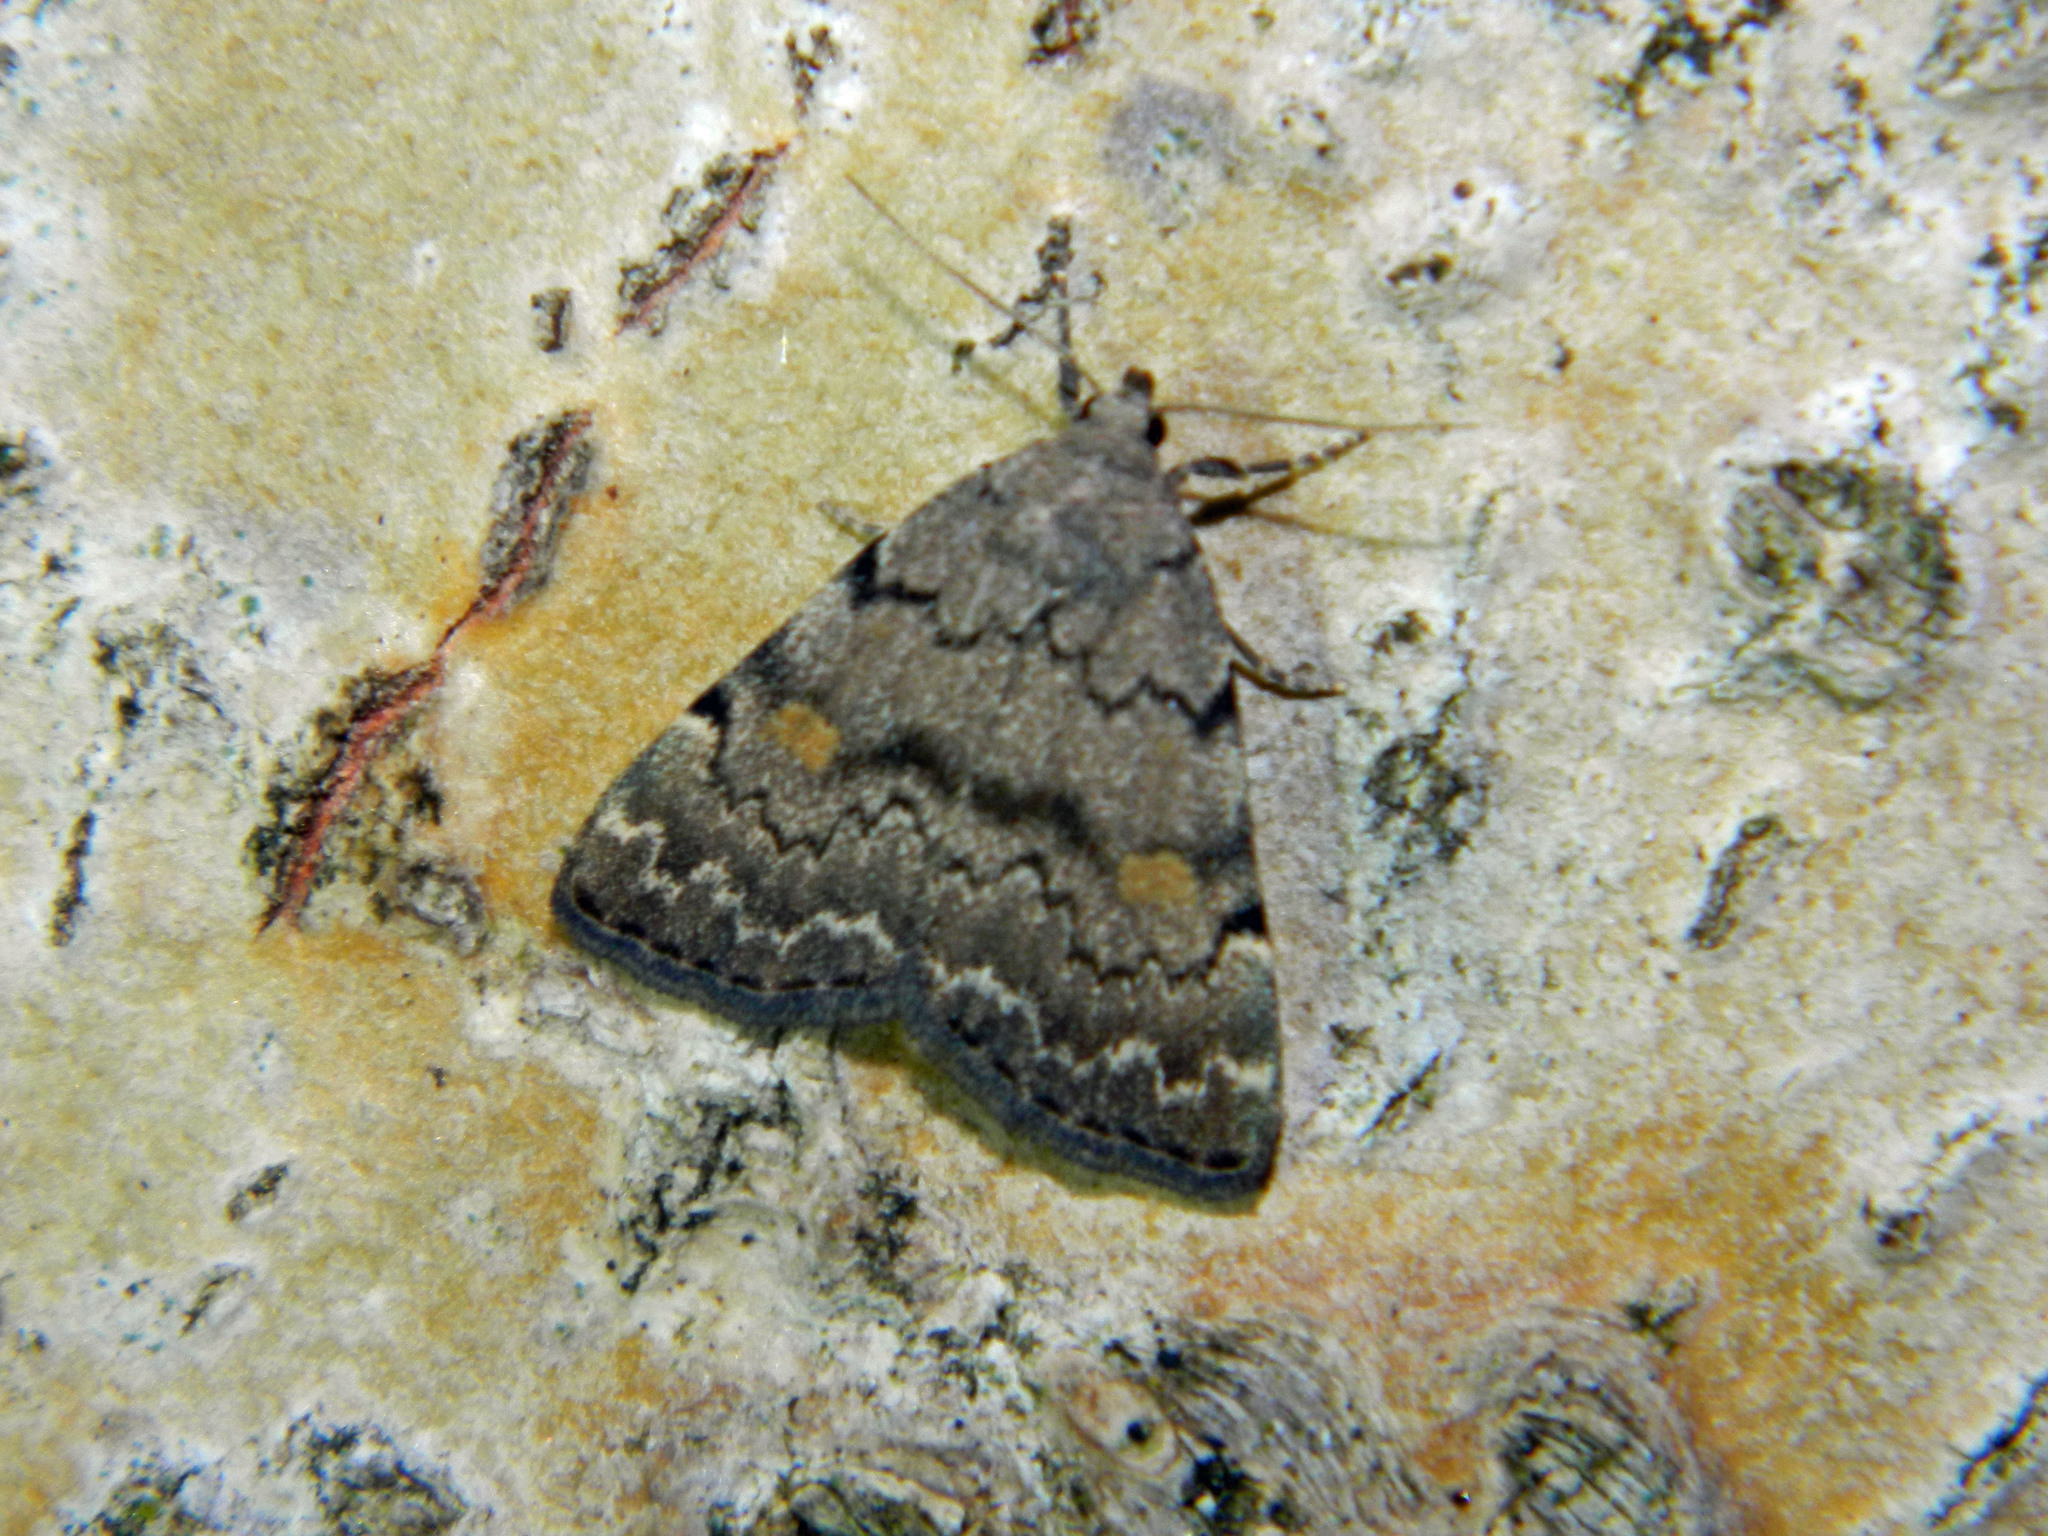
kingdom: Animalia
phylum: Arthropoda
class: Insecta
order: Lepidoptera
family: Erebidae
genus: Idia
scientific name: Idia aemula
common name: Common idia moth
